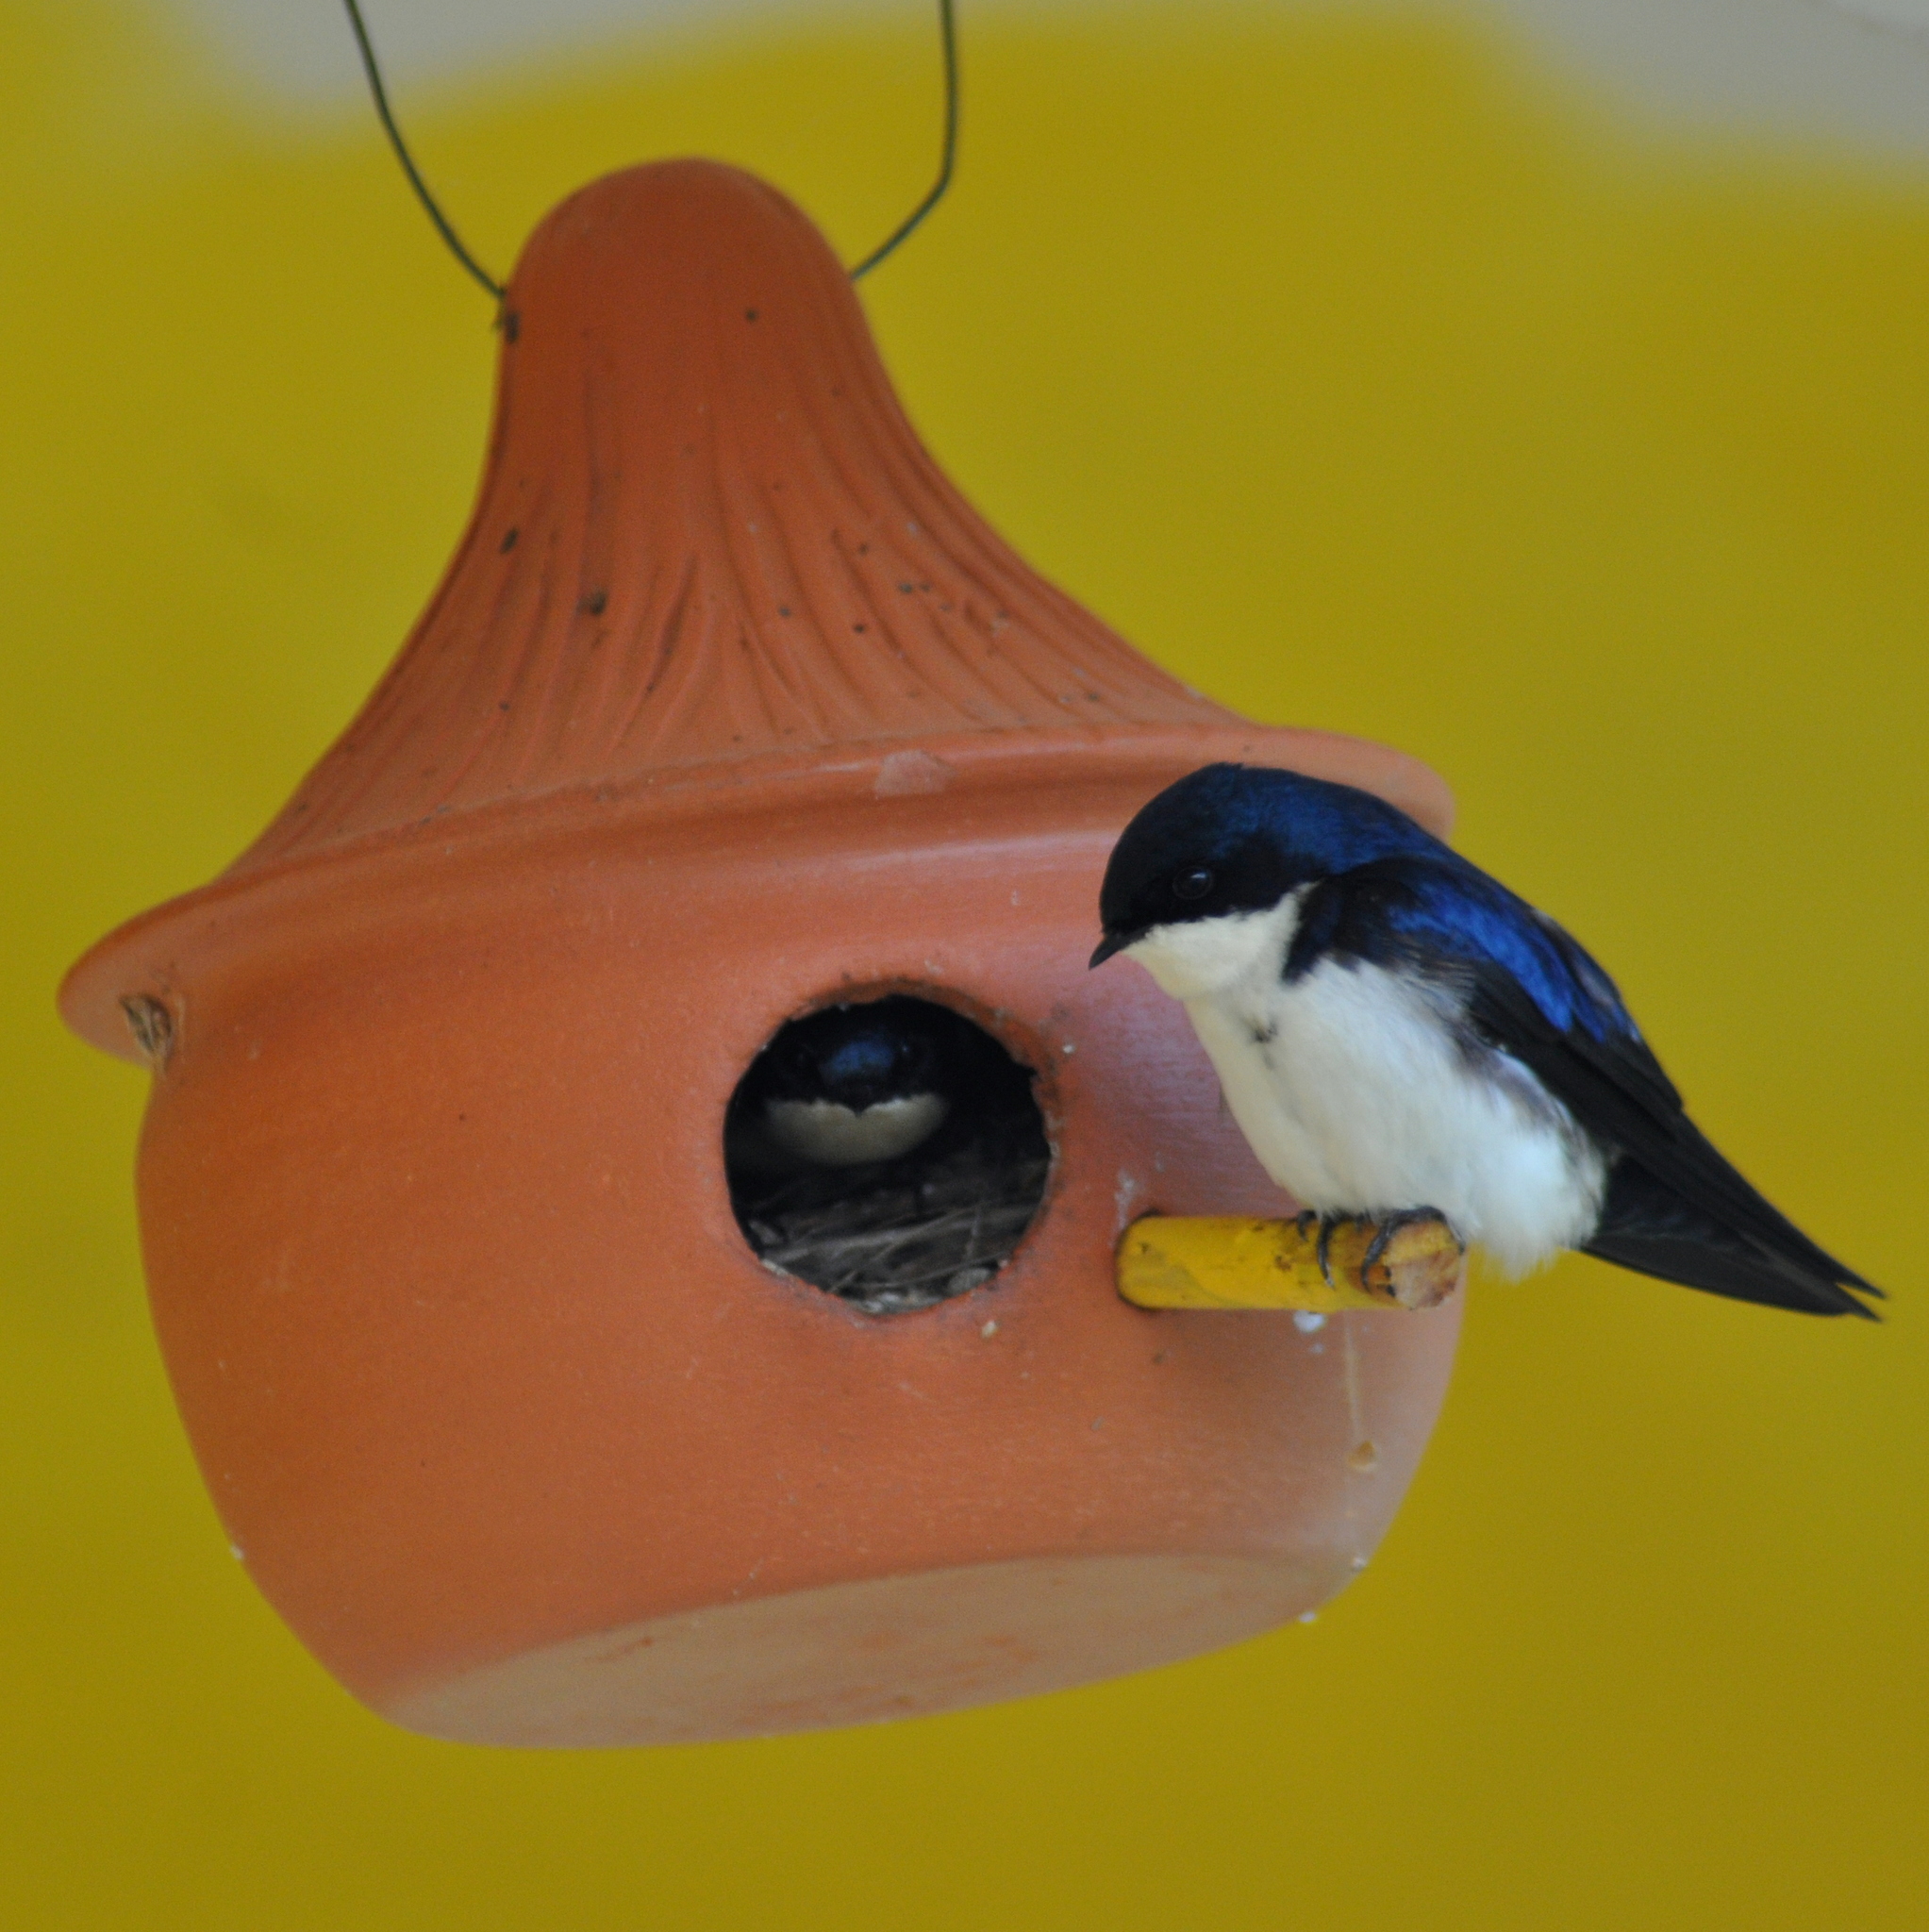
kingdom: Animalia
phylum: Chordata
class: Aves
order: Passeriformes
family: Hirundinidae
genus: Notiochelidon
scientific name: Notiochelidon cyanoleuca
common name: Blue-and-white swallow
